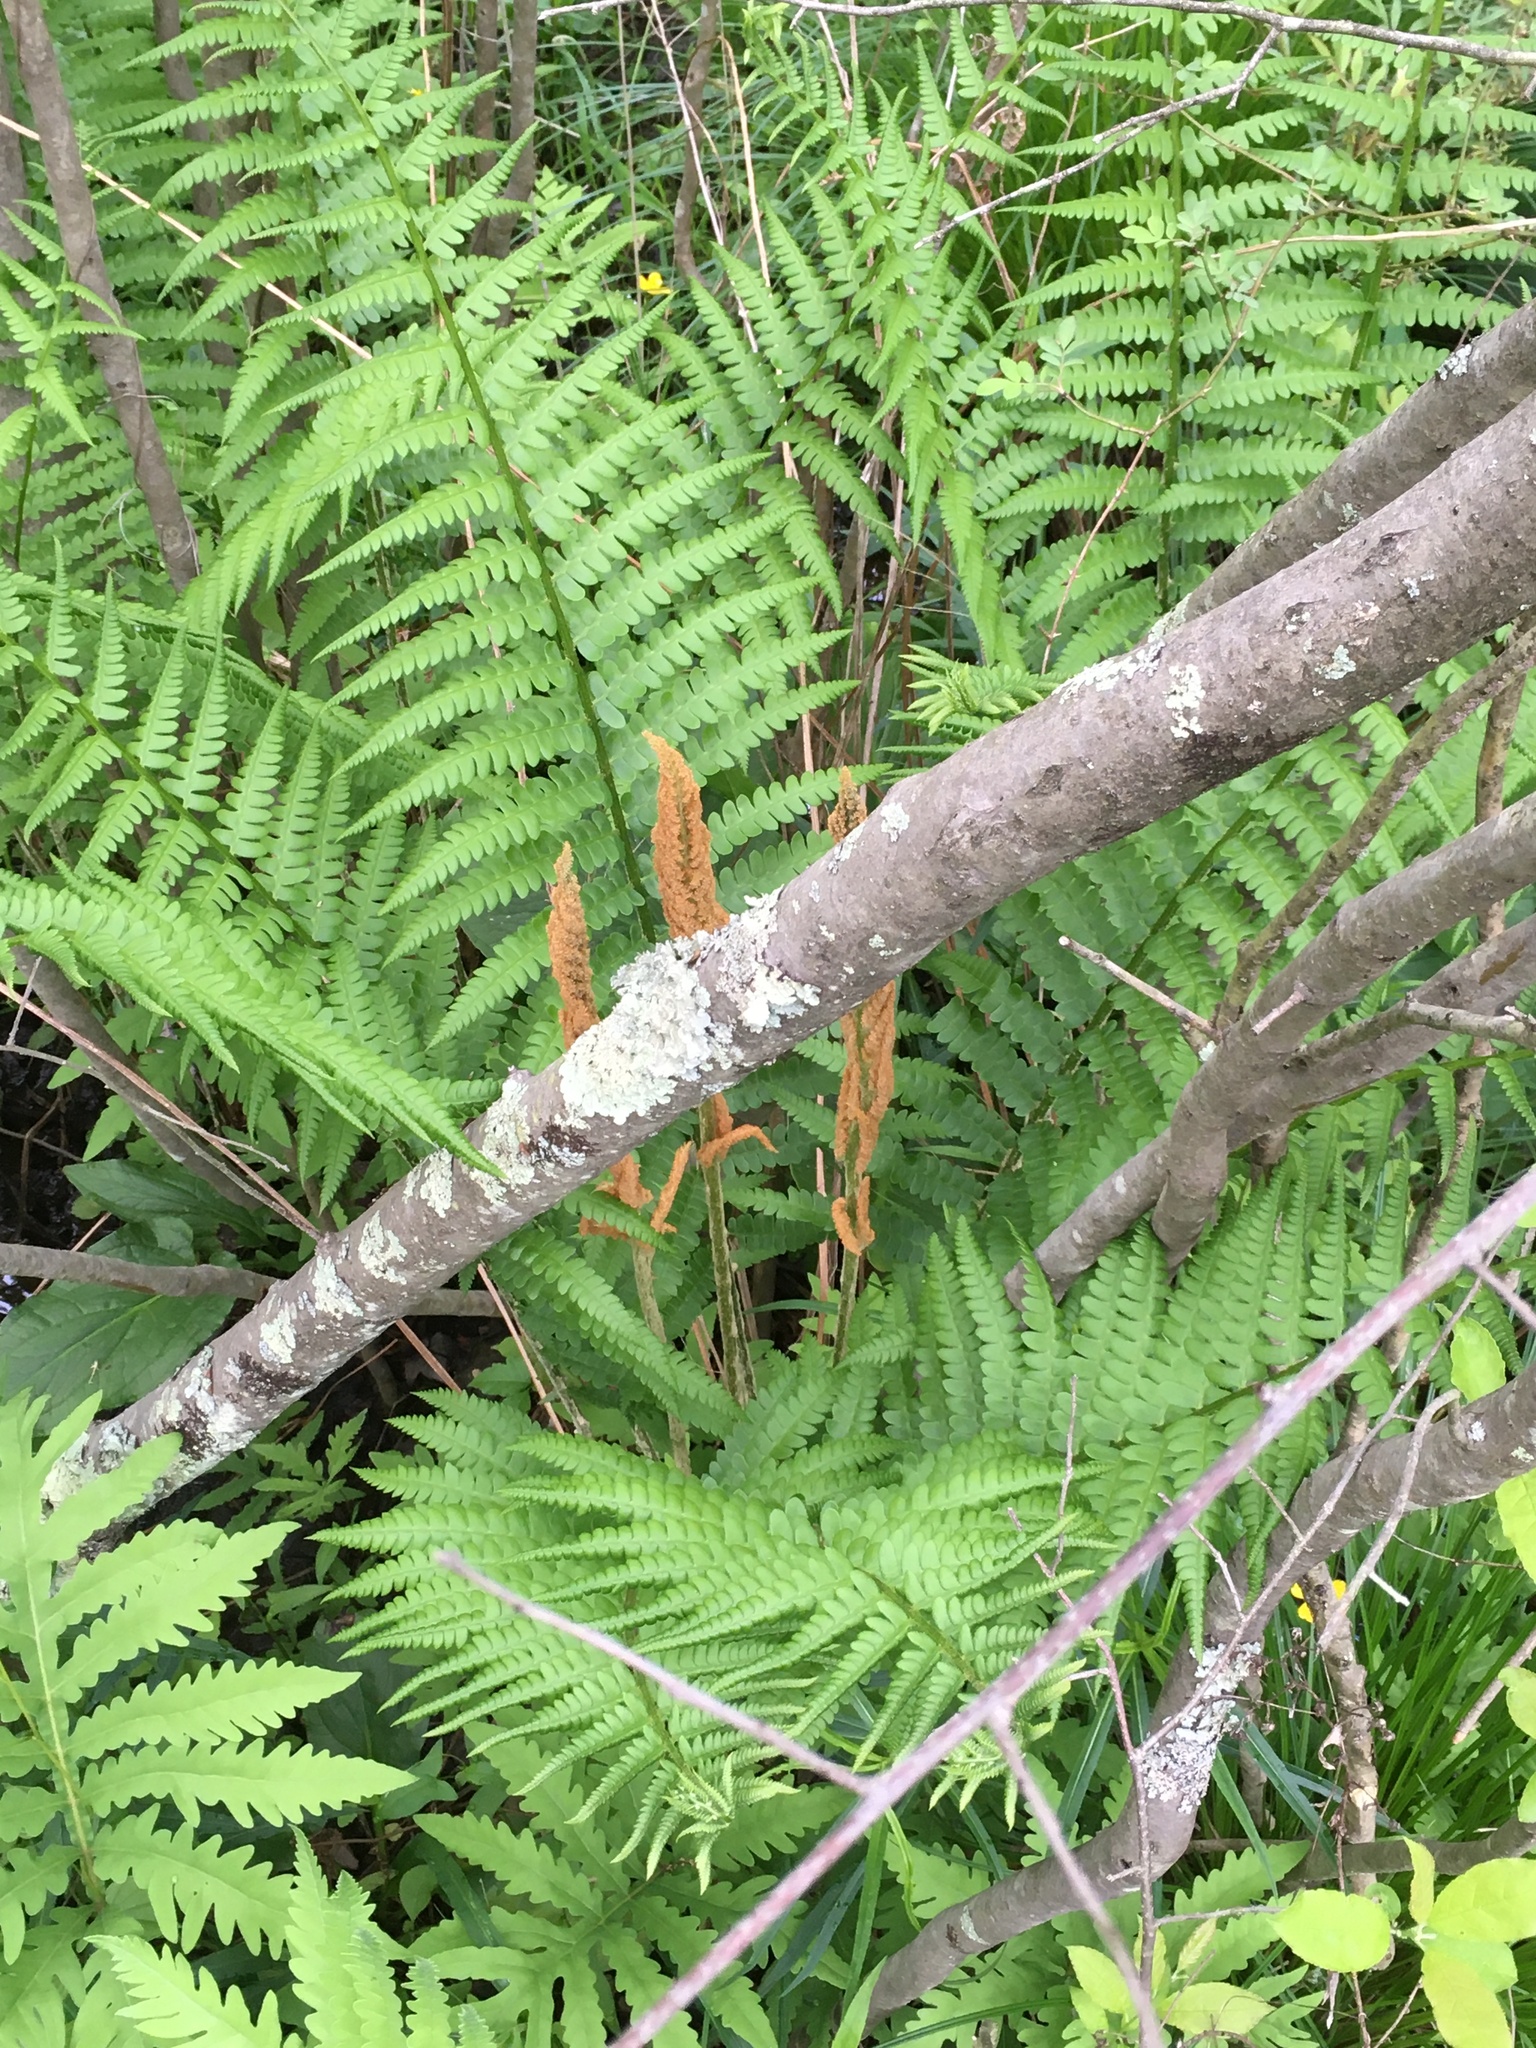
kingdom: Plantae
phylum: Tracheophyta
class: Polypodiopsida
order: Osmundales
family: Osmundaceae
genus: Osmundastrum
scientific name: Osmundastrum cinnamomeum
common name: Cinnamon fern
